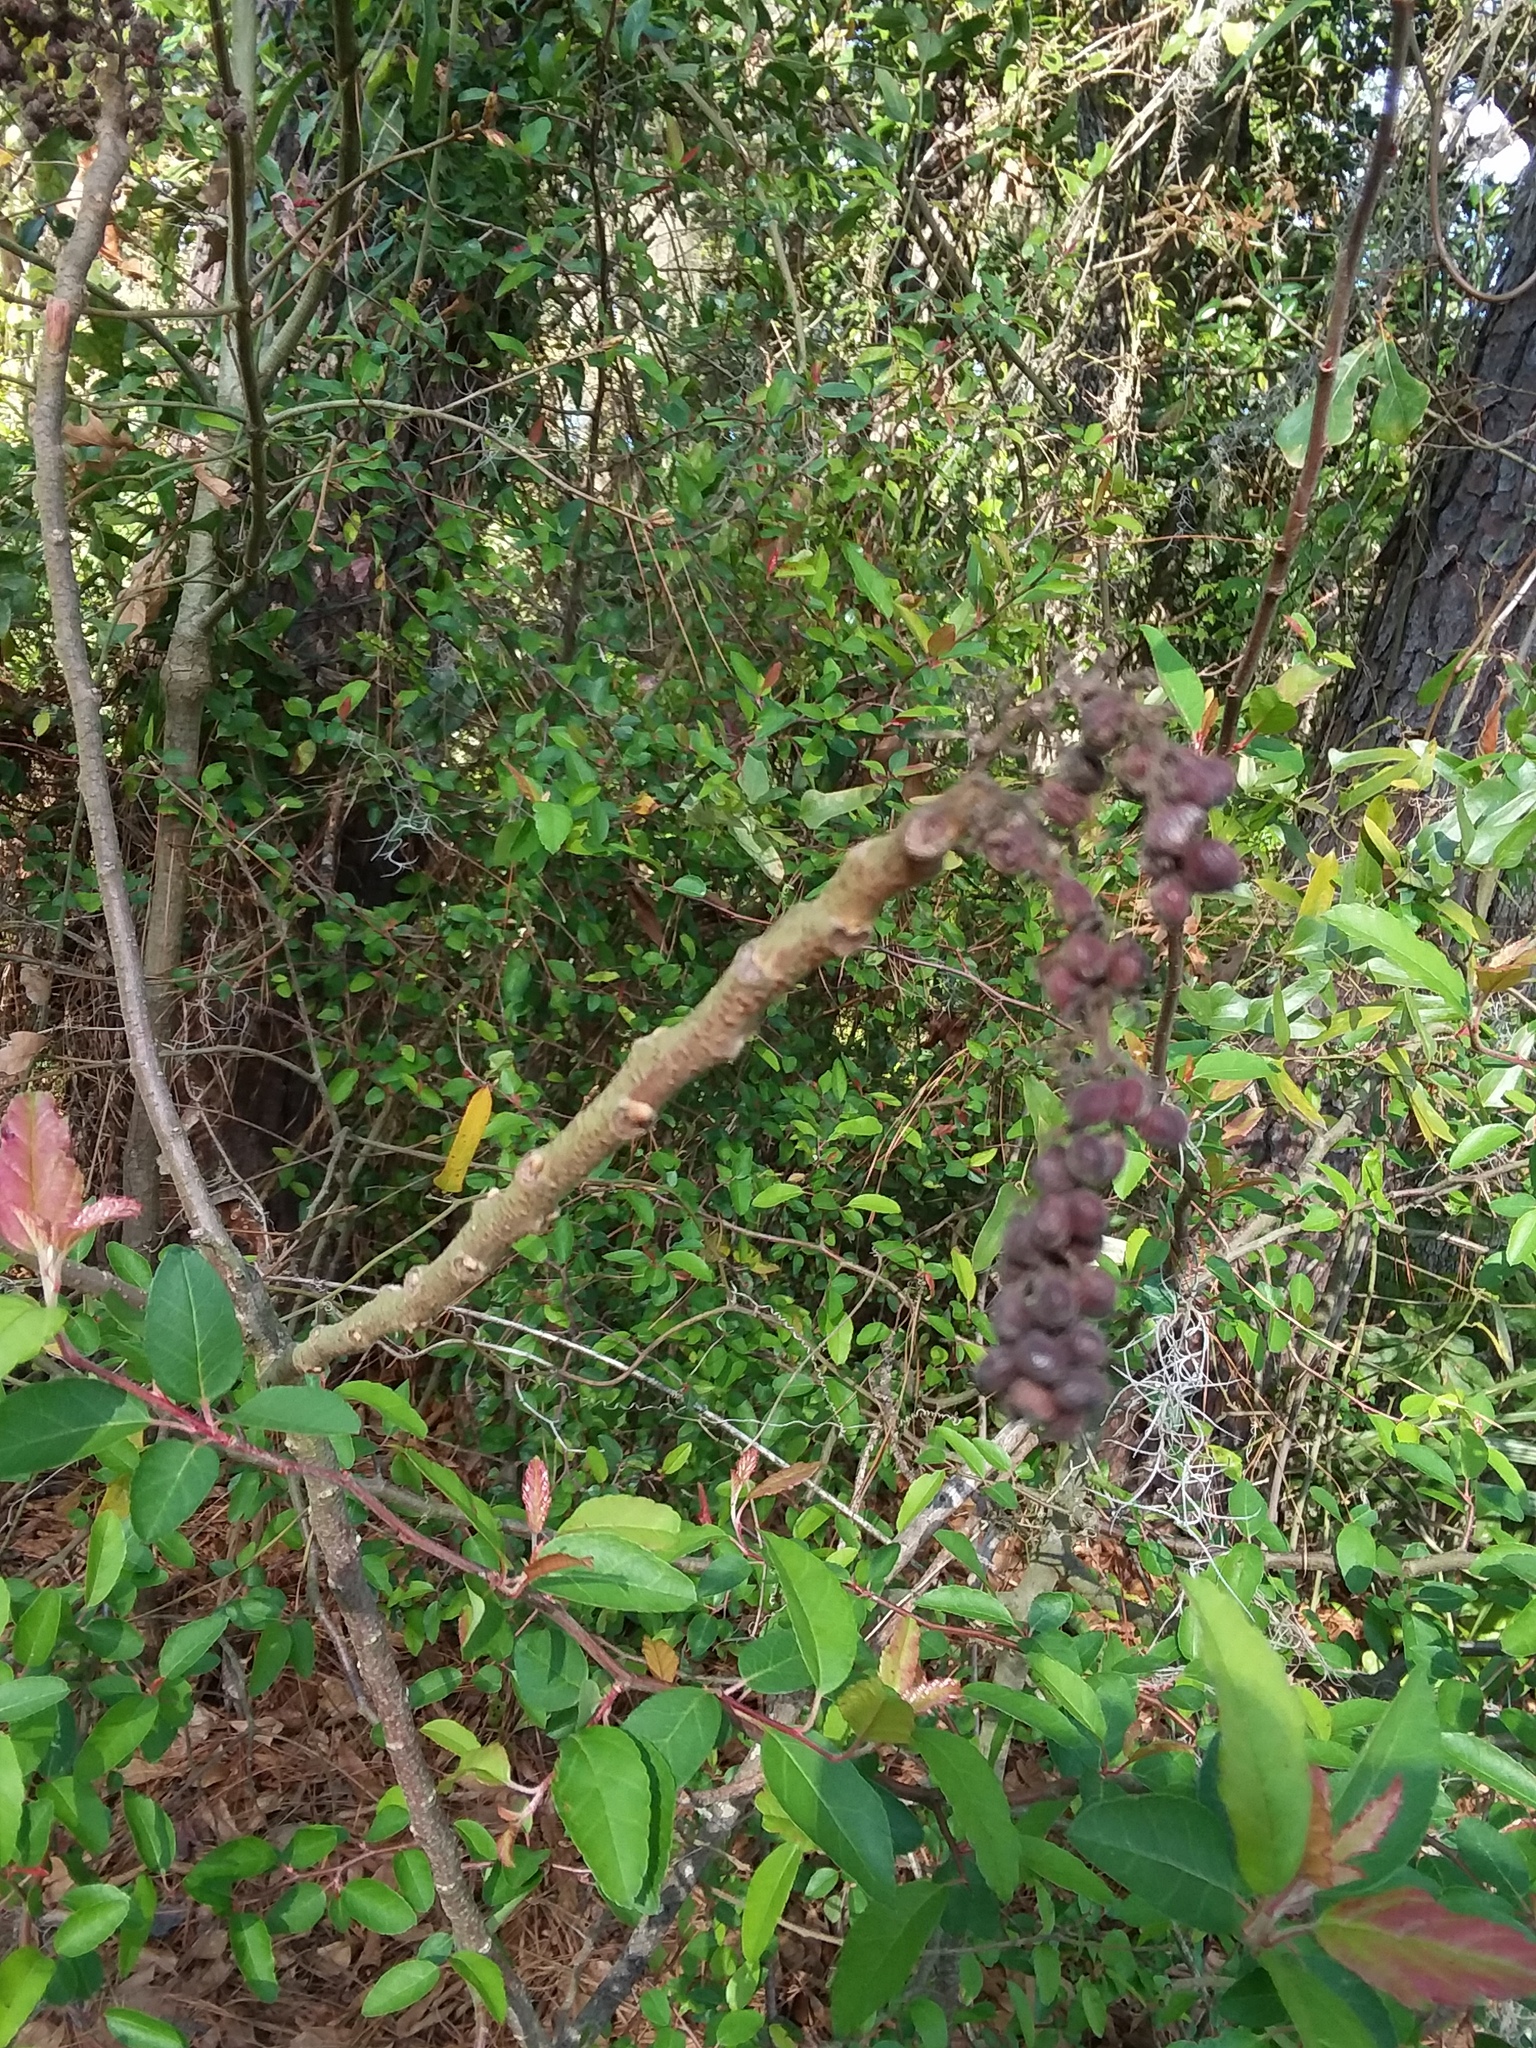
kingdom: Plantae
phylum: Tracheophyta
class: Magnoliopsida
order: Sapindales
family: Anacardiaceae
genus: Rhus
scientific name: Rhus copallina
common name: Shining sumac
